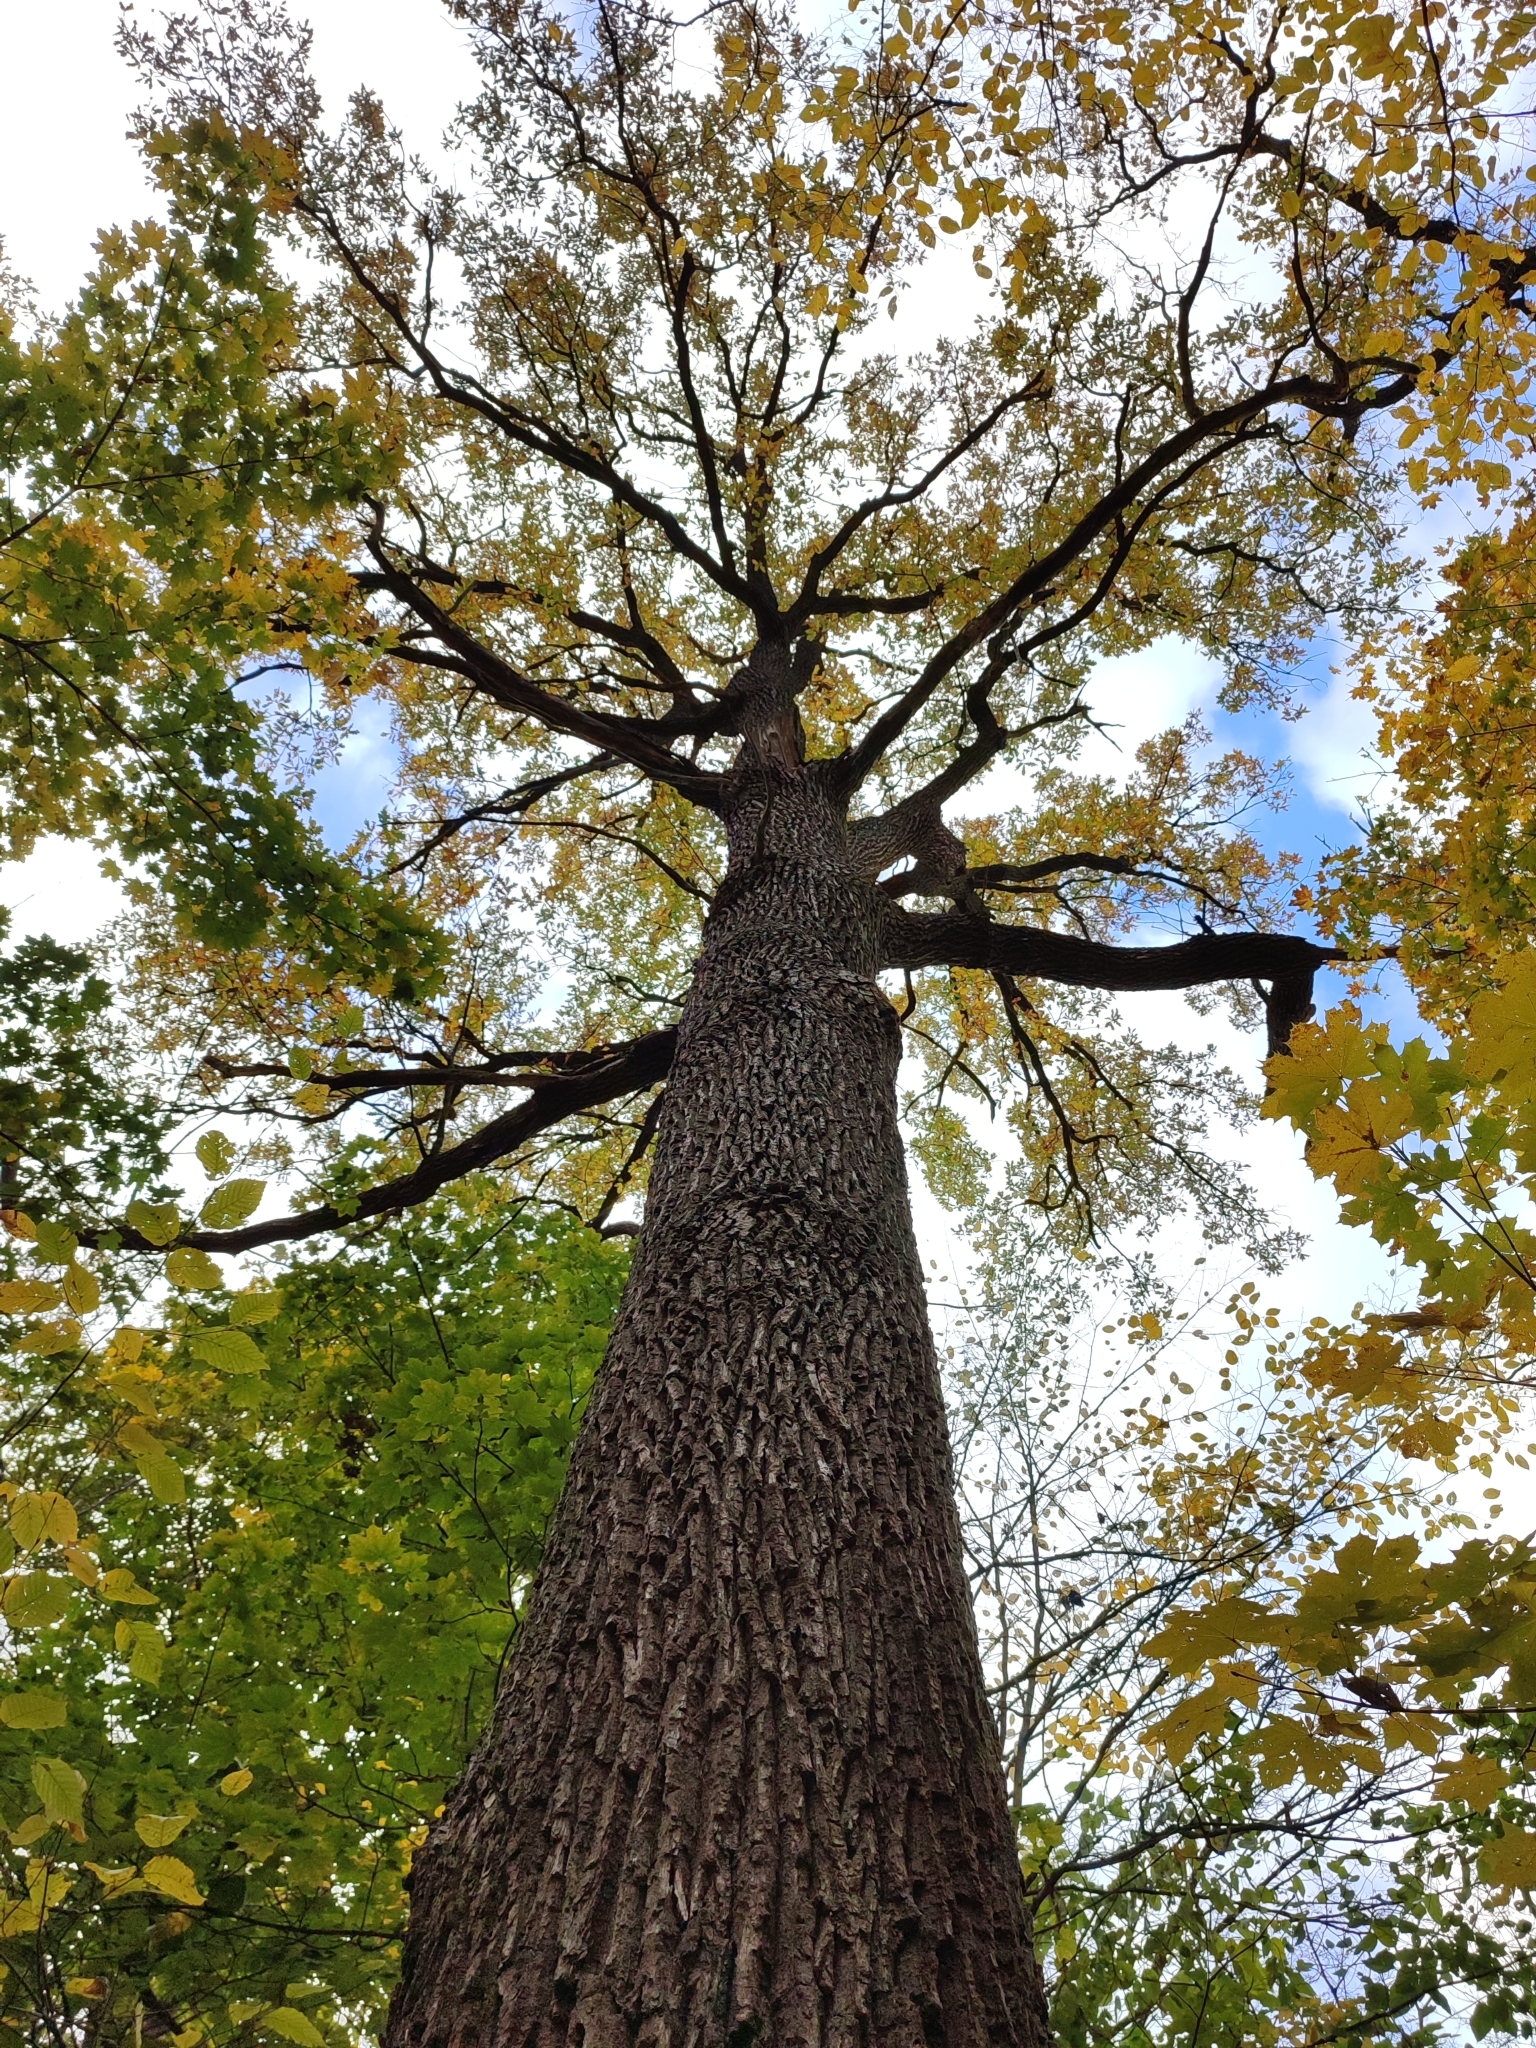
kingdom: Plantae
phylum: Tracheophyta
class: Magnoliopsida
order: Fagales
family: Fagaceae
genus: Quercus
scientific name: Quercus robur
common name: Pedunculate oak
